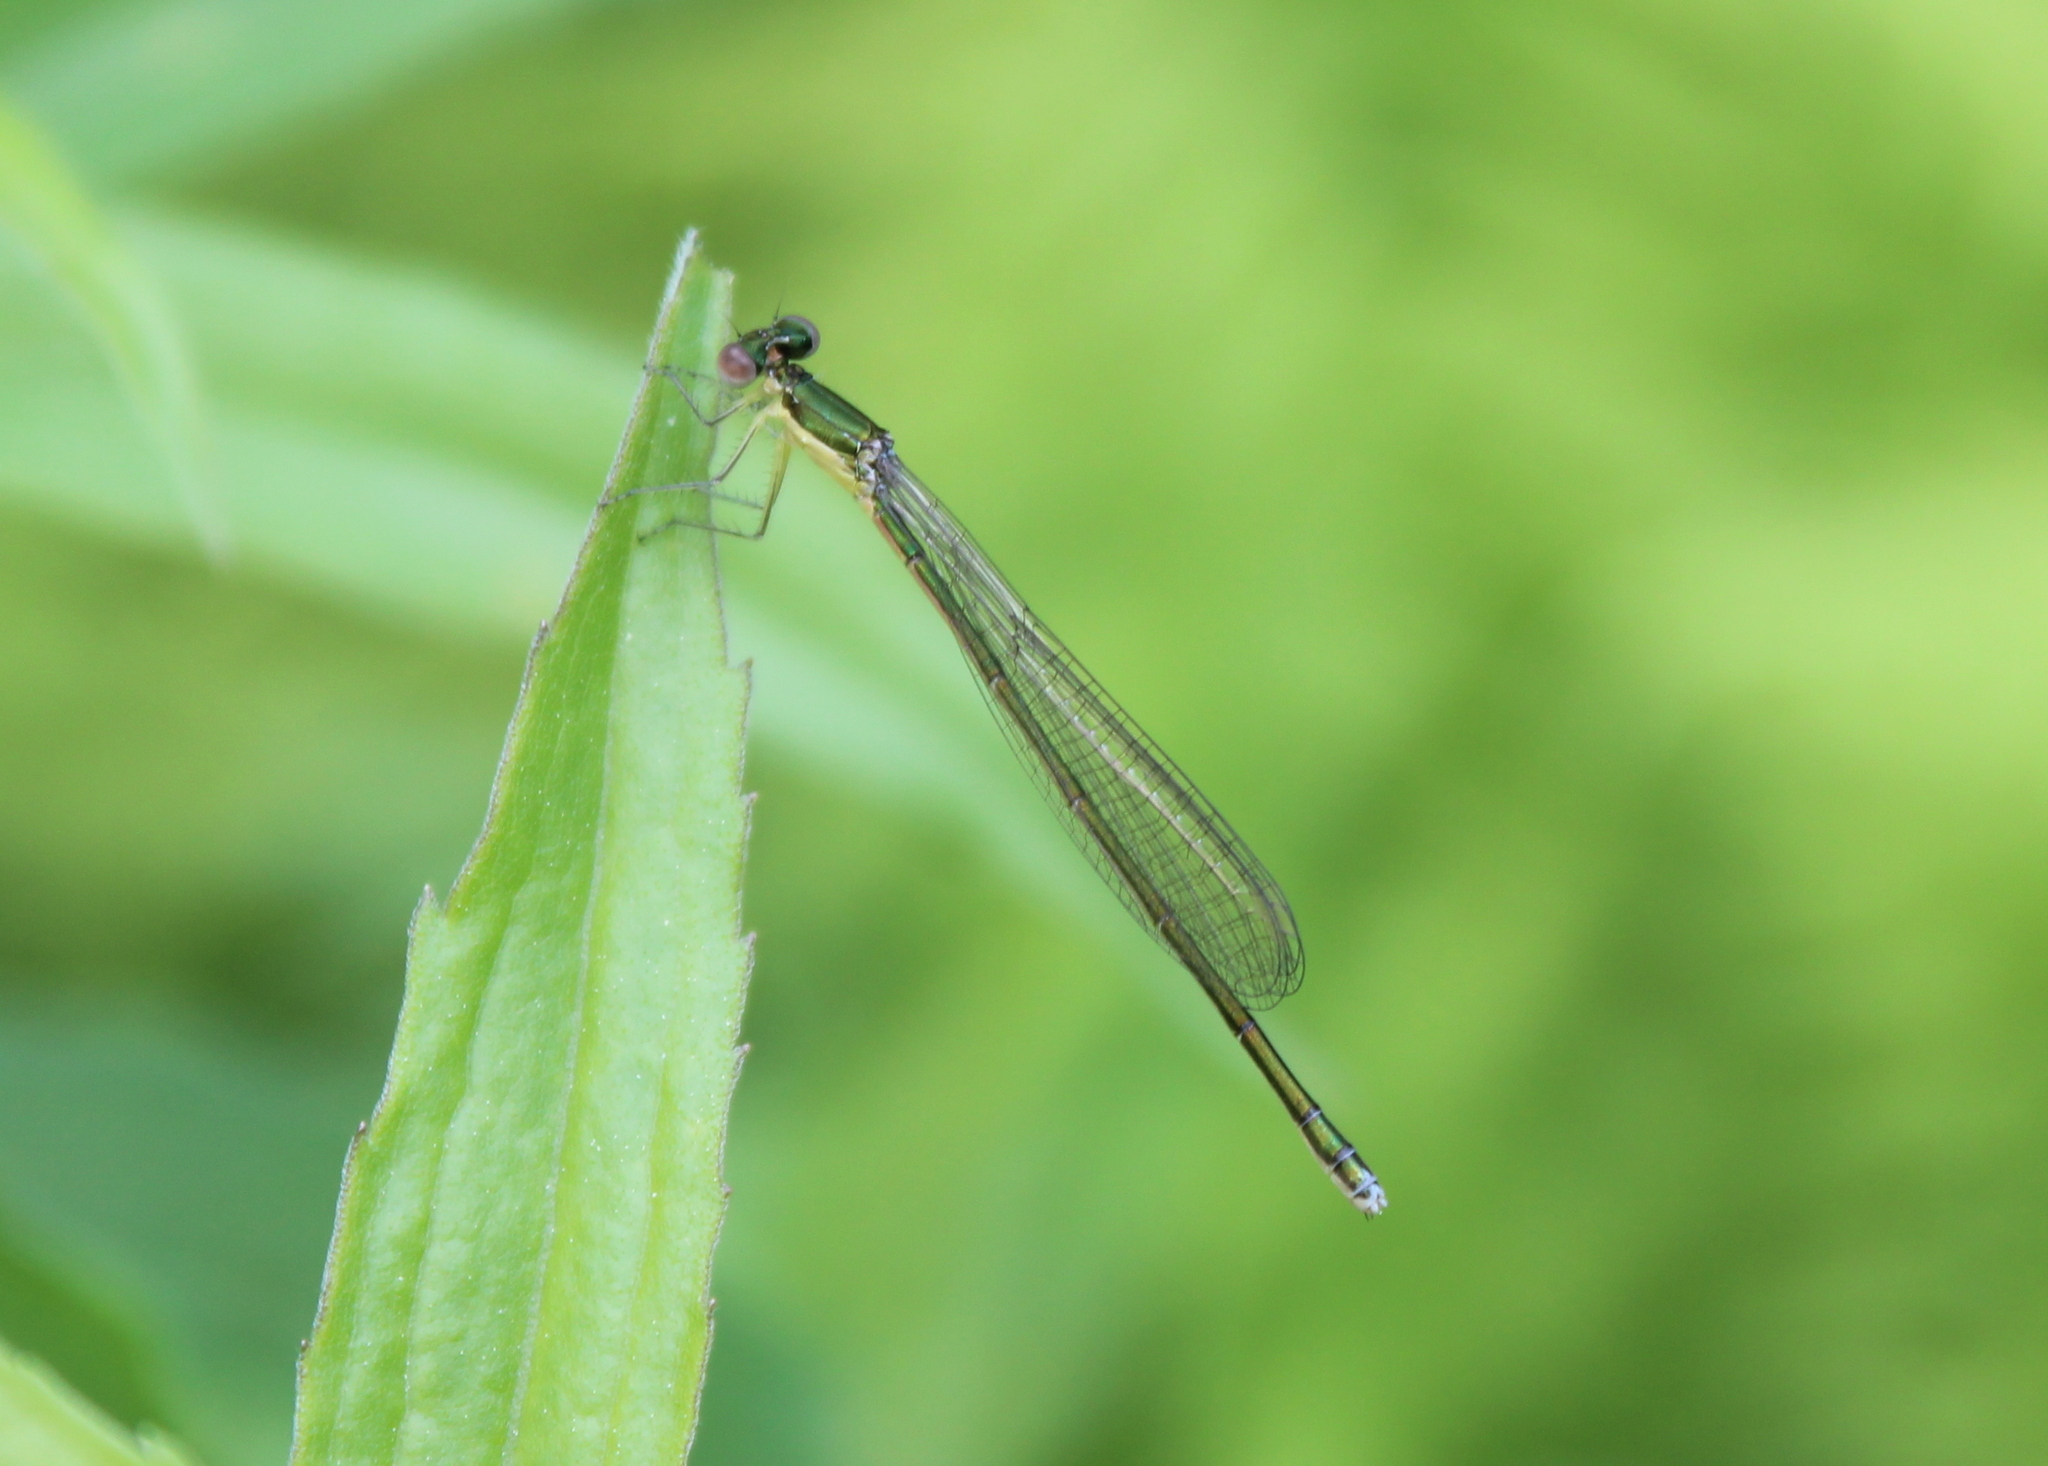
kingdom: Animalia
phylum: Arthropoda
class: Insecta
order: Odonata
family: Coenagrionidae
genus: Nehalennia
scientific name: Nehalennia irene
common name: Sedge sprite
